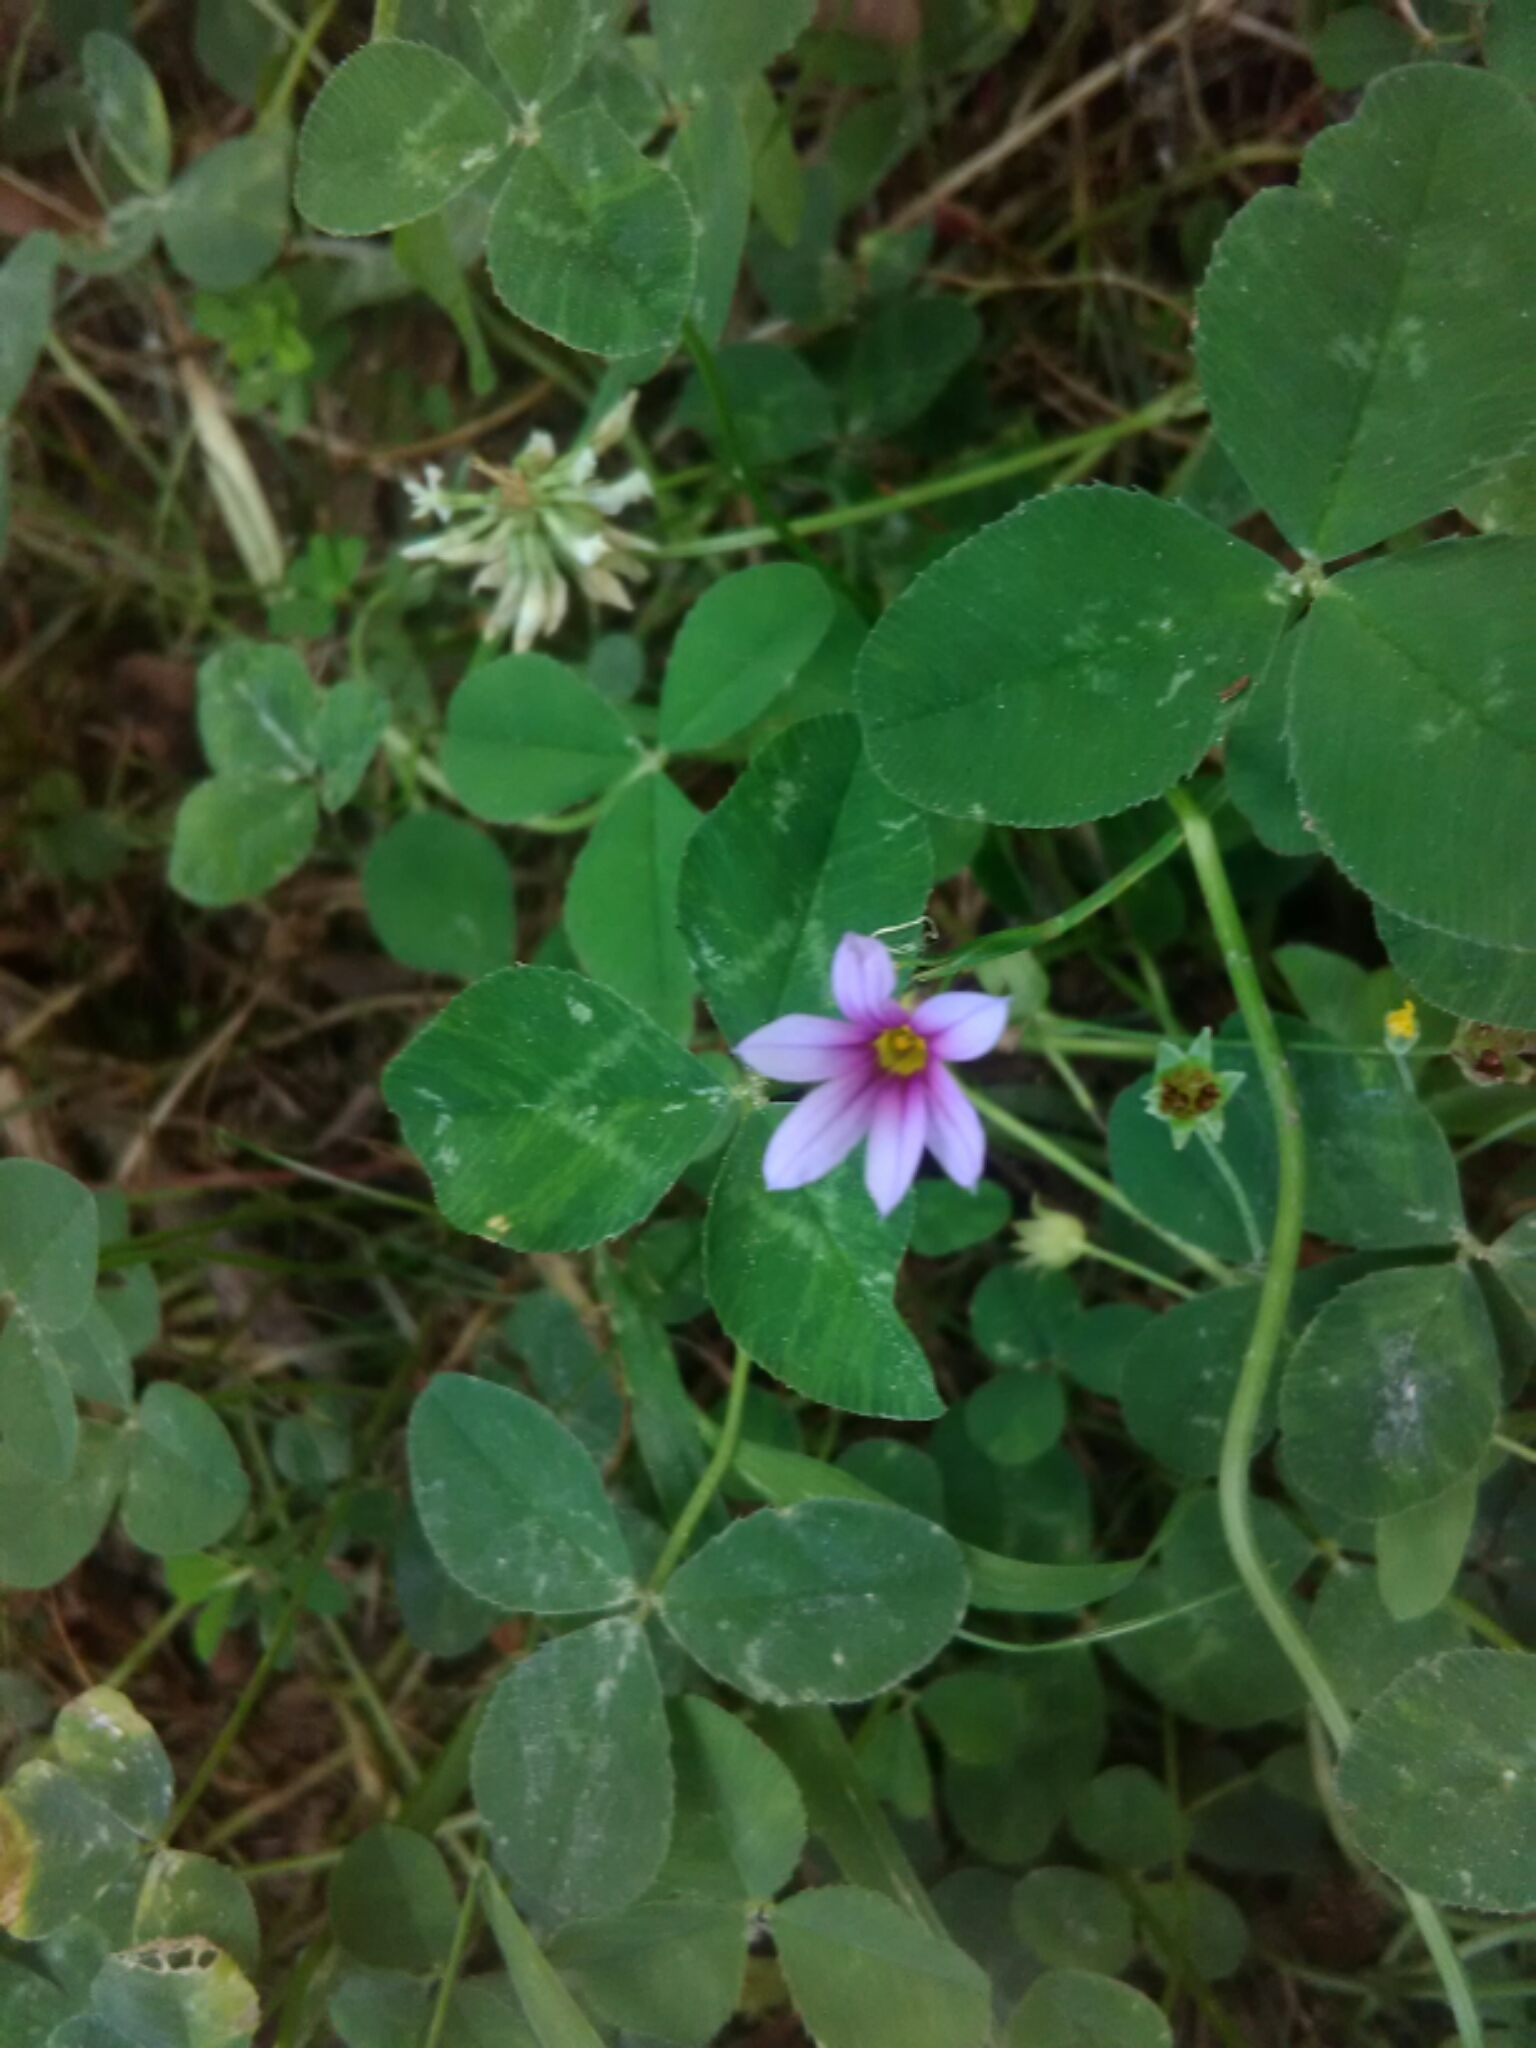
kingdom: Plantae
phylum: Tracheophyta
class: Liliopsida
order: Asparagales
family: Iridaceae
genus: Sisyrinchium
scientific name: Sisyrinchium micranthum
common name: Bermuda pigroot
